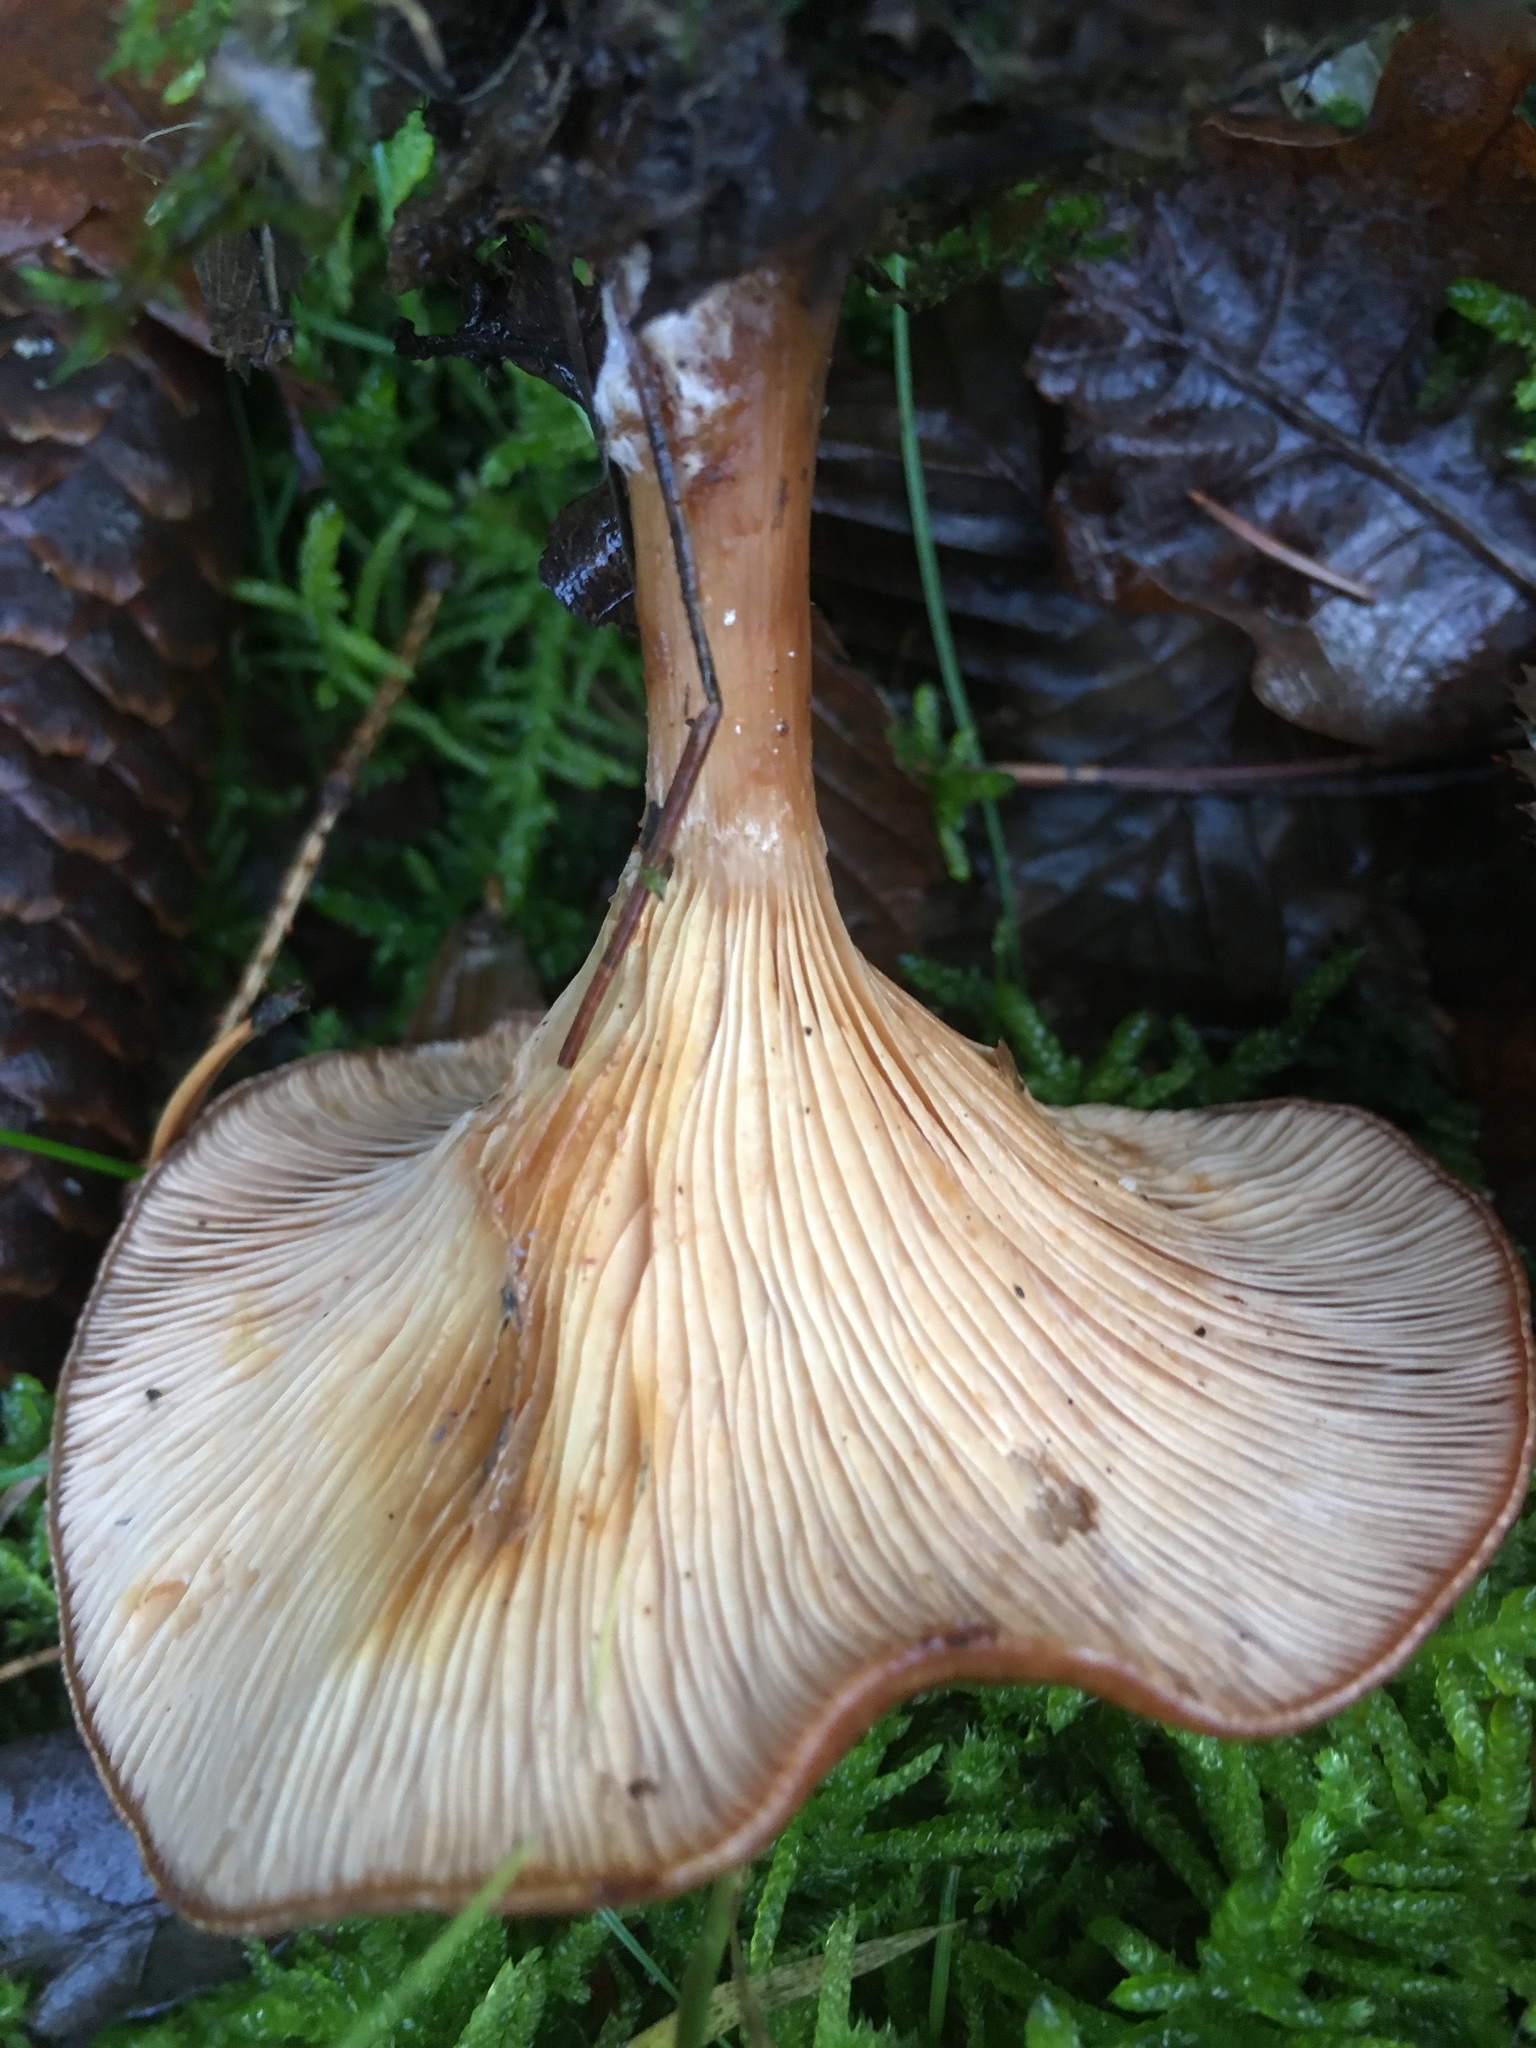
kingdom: Fungi
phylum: Basidiomycota
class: Agaricomycetes
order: Agaricales
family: Tricholomataceae
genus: Infundibulicybe
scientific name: Infundibulicybe gibba
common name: Common funnel
